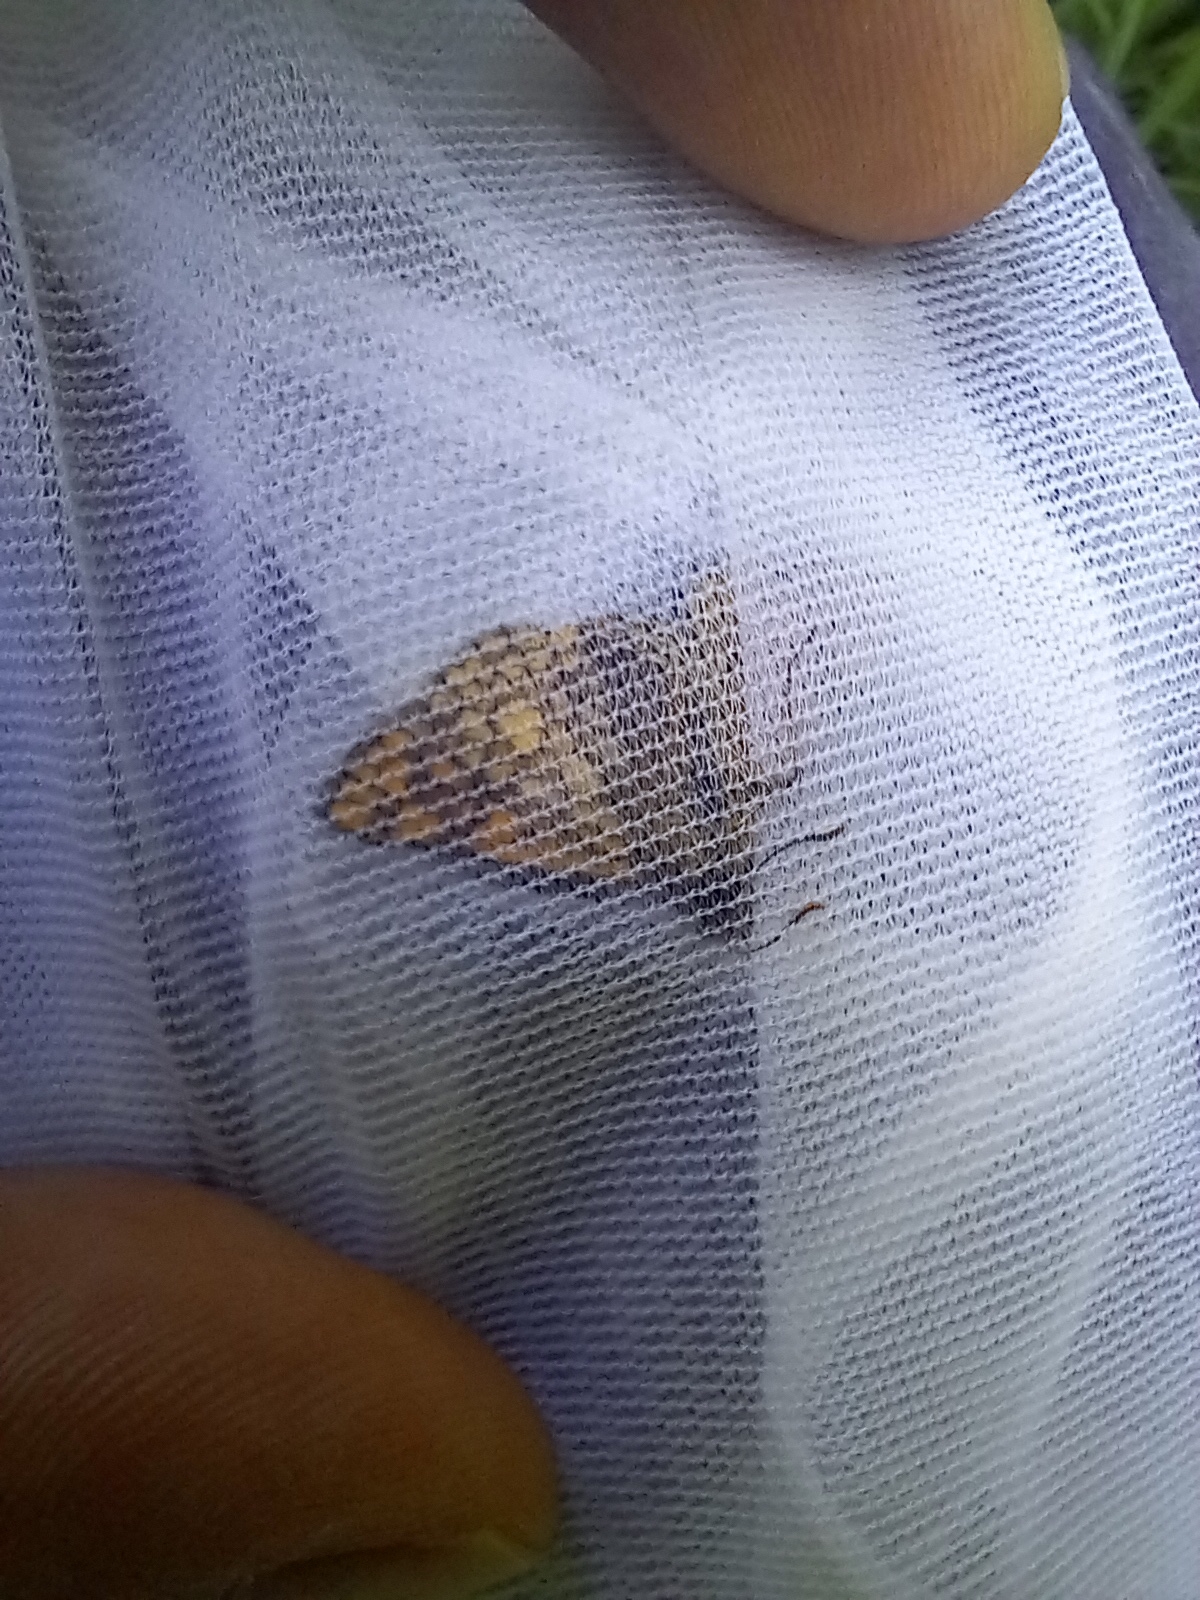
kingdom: Animalia
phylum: Arthropoda
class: Insecta
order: Lepidoptera
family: Hesperiidae
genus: Carterocephalus
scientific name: Carterocephalus palaemon
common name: Chequered skipper
